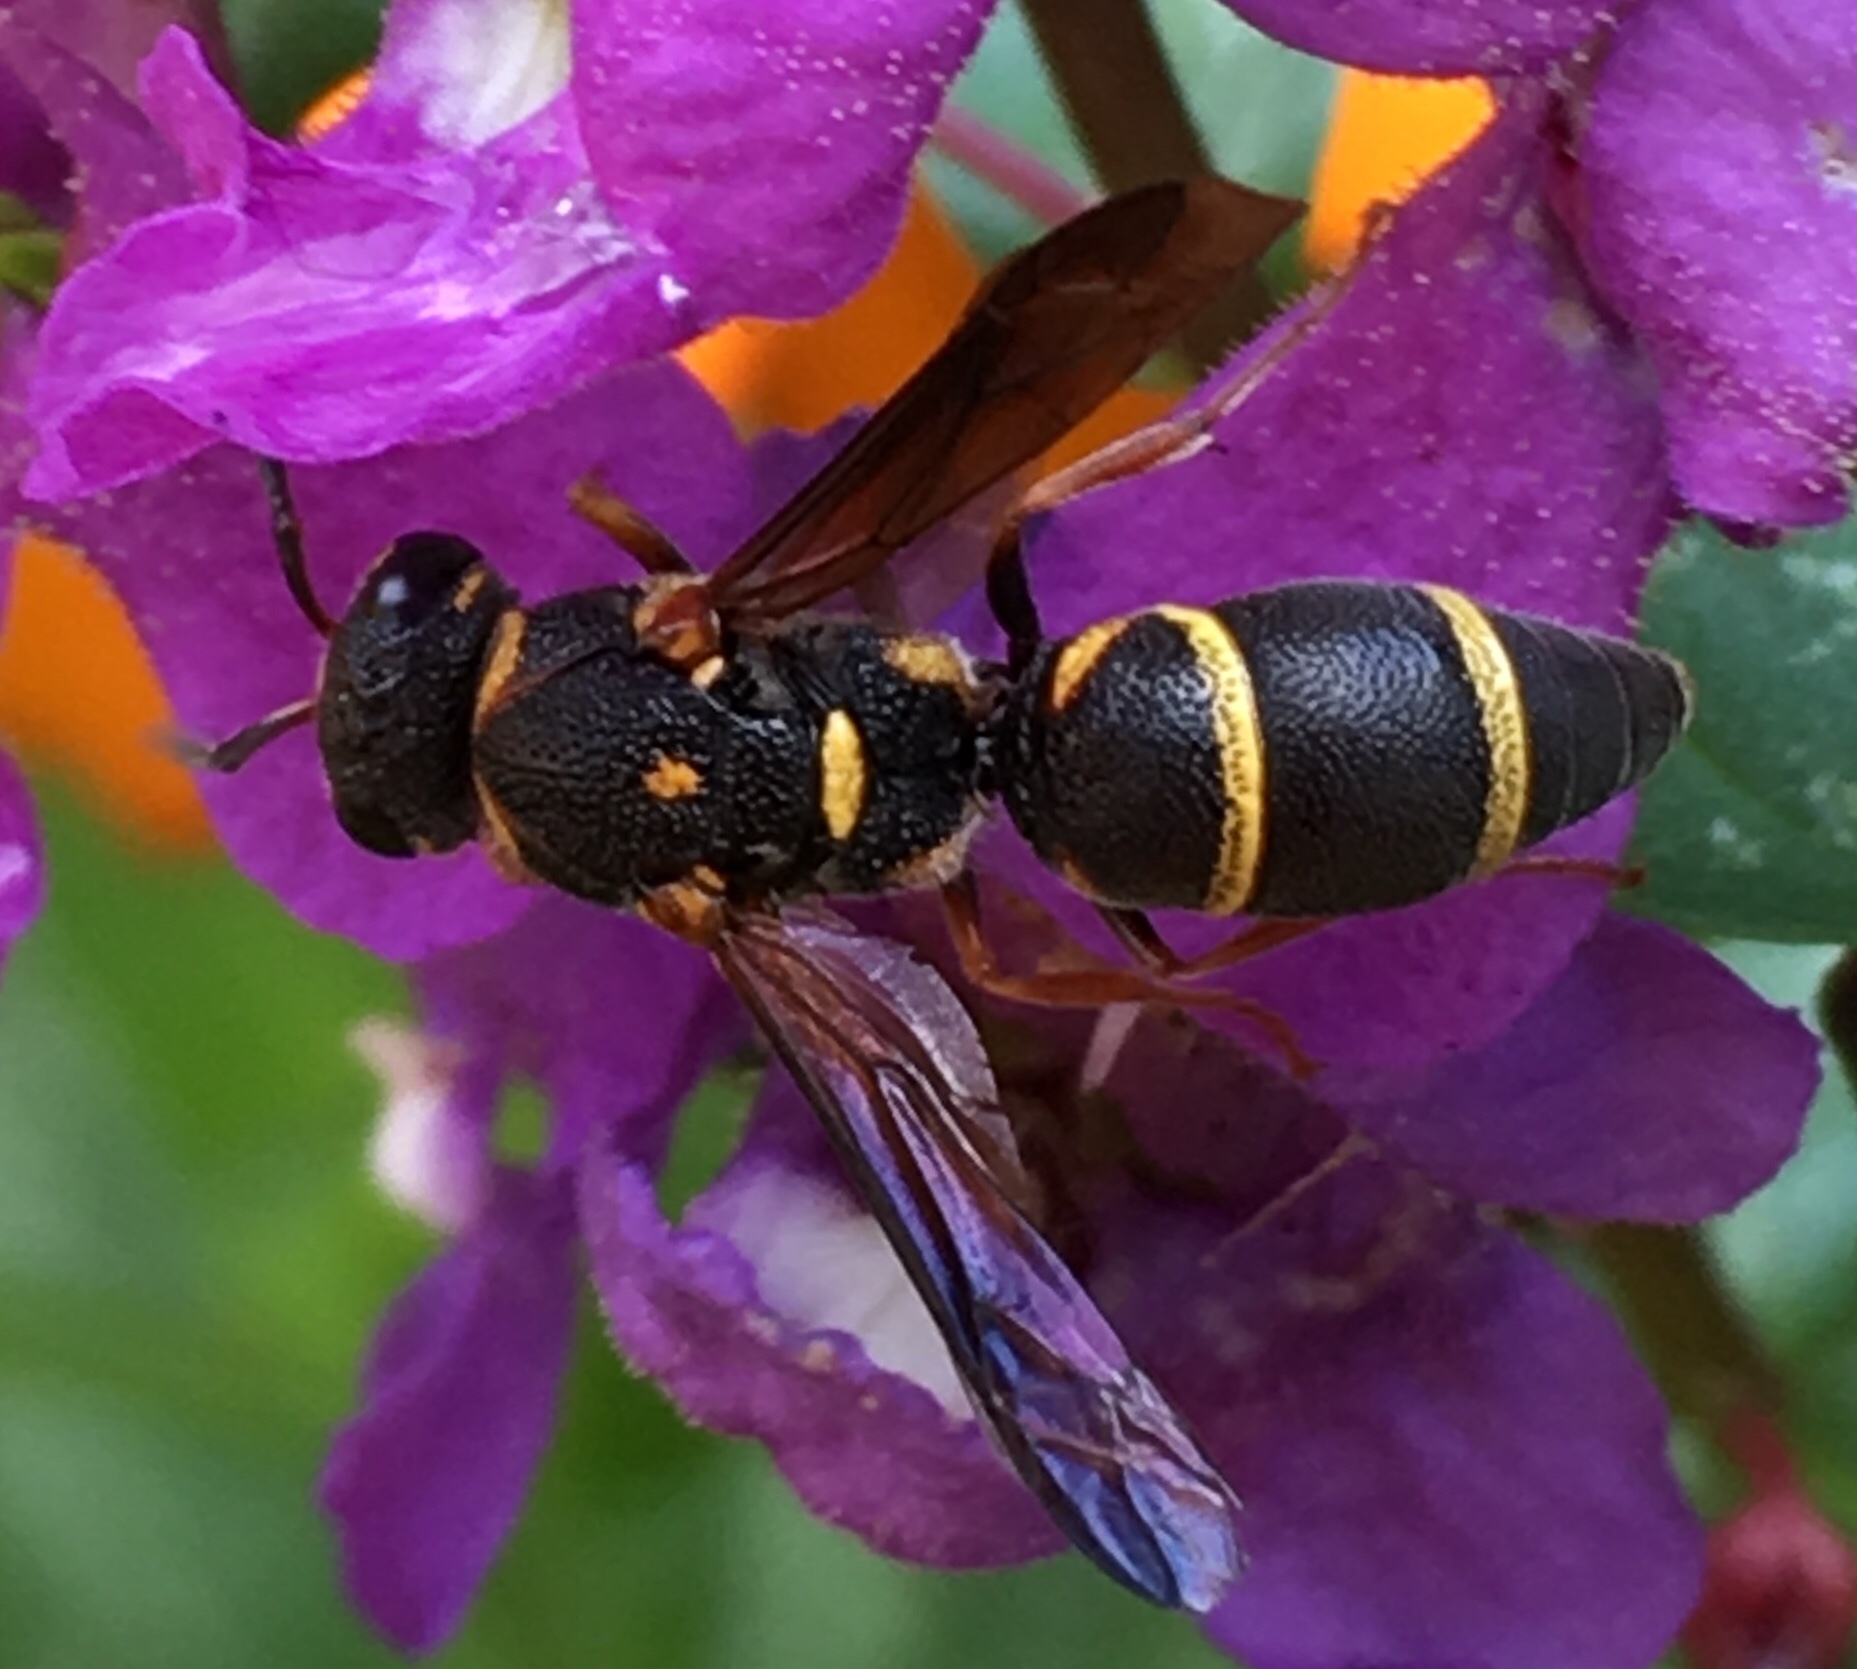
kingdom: Animalia
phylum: Arthropoda
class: Insecta
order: Hymenoptera
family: Eumenidae
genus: Parancistrocerus
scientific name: Parancistrocerus fulvipes
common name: Potter wasp
